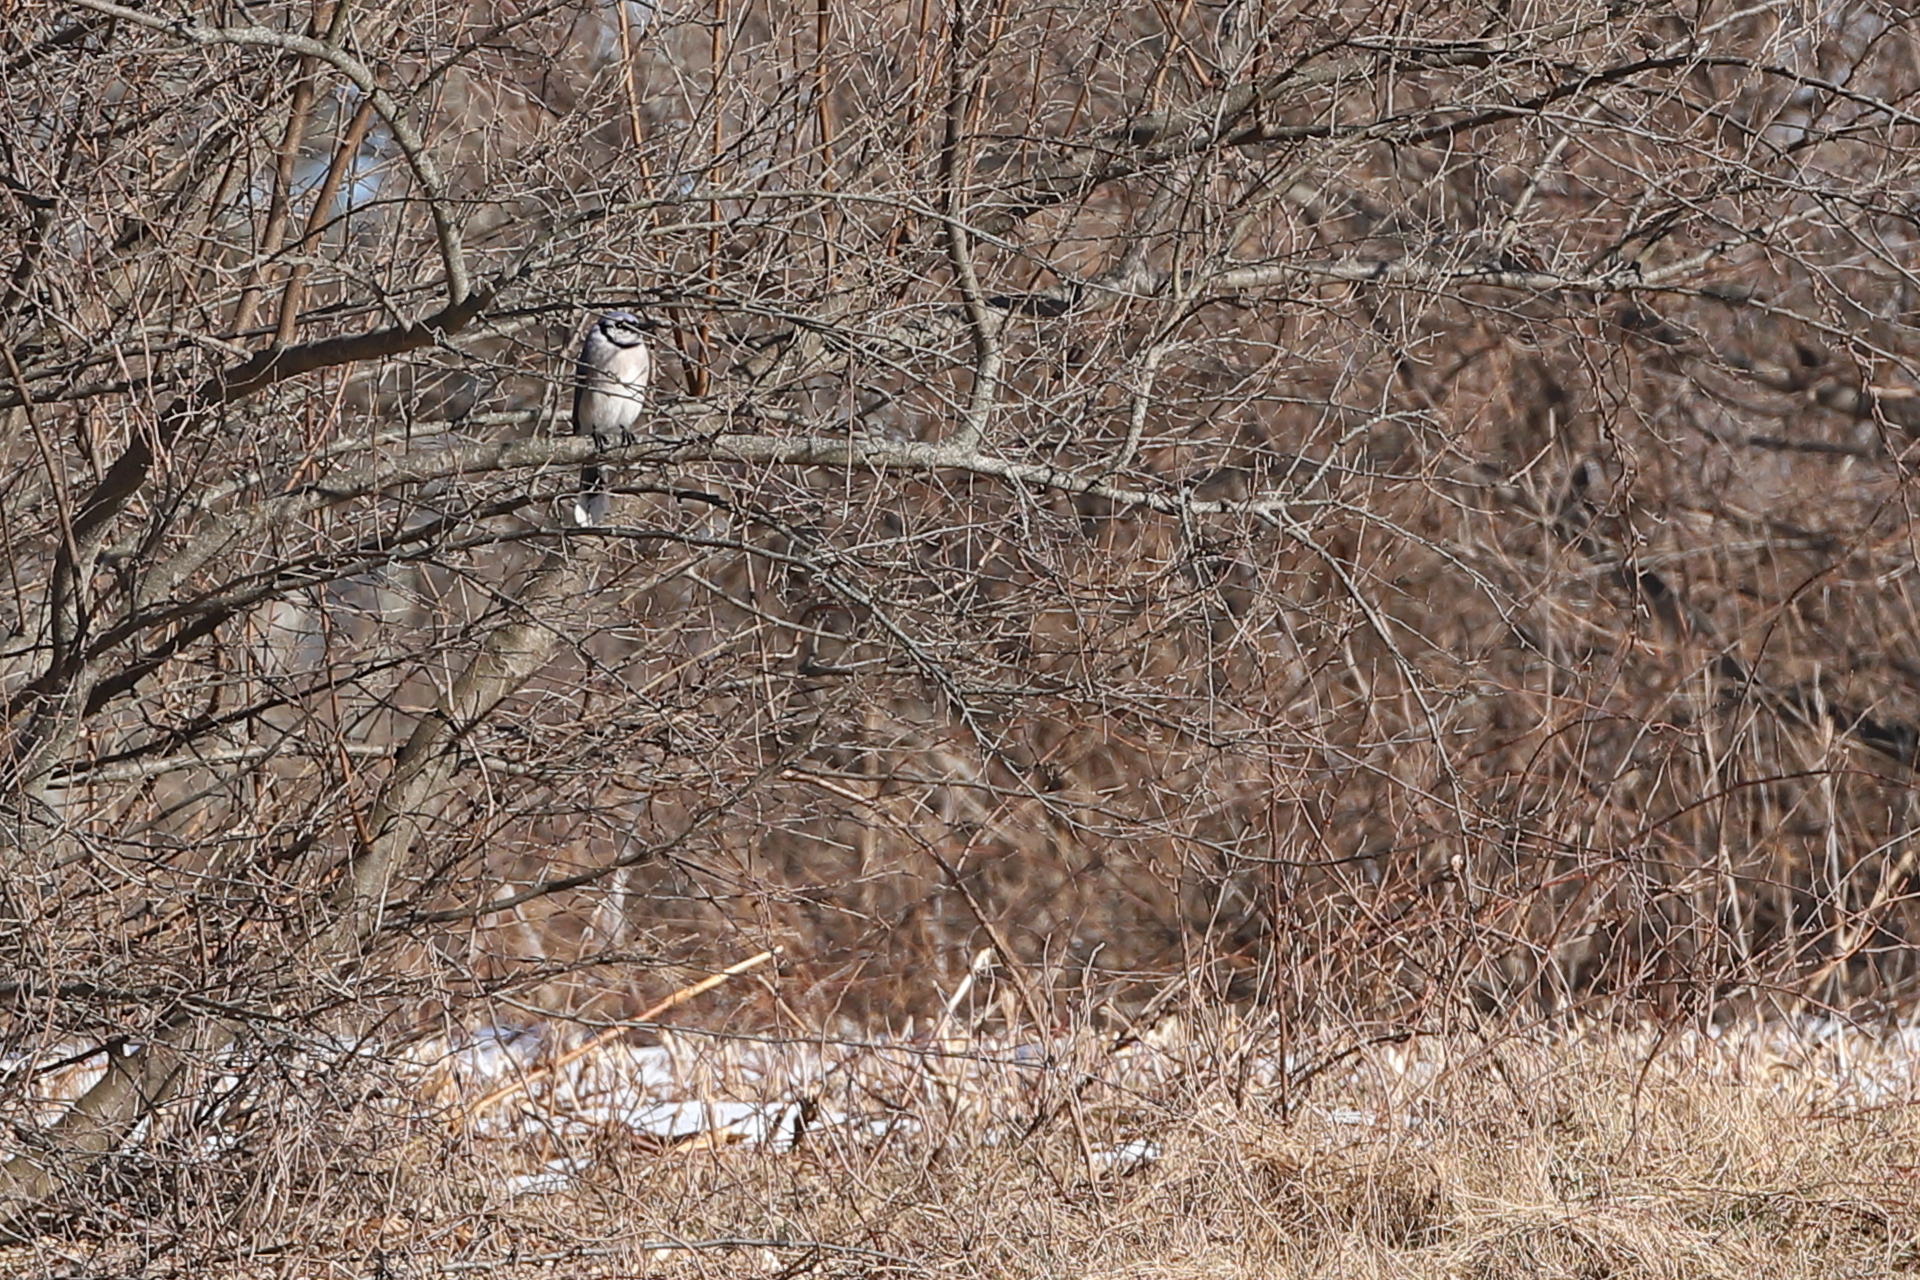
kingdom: Animalia
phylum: Chordata
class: Aves
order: Passeriformes
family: Corvidae
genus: Cyanocitta
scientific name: Cyanocitta cristata
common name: Blue jay
